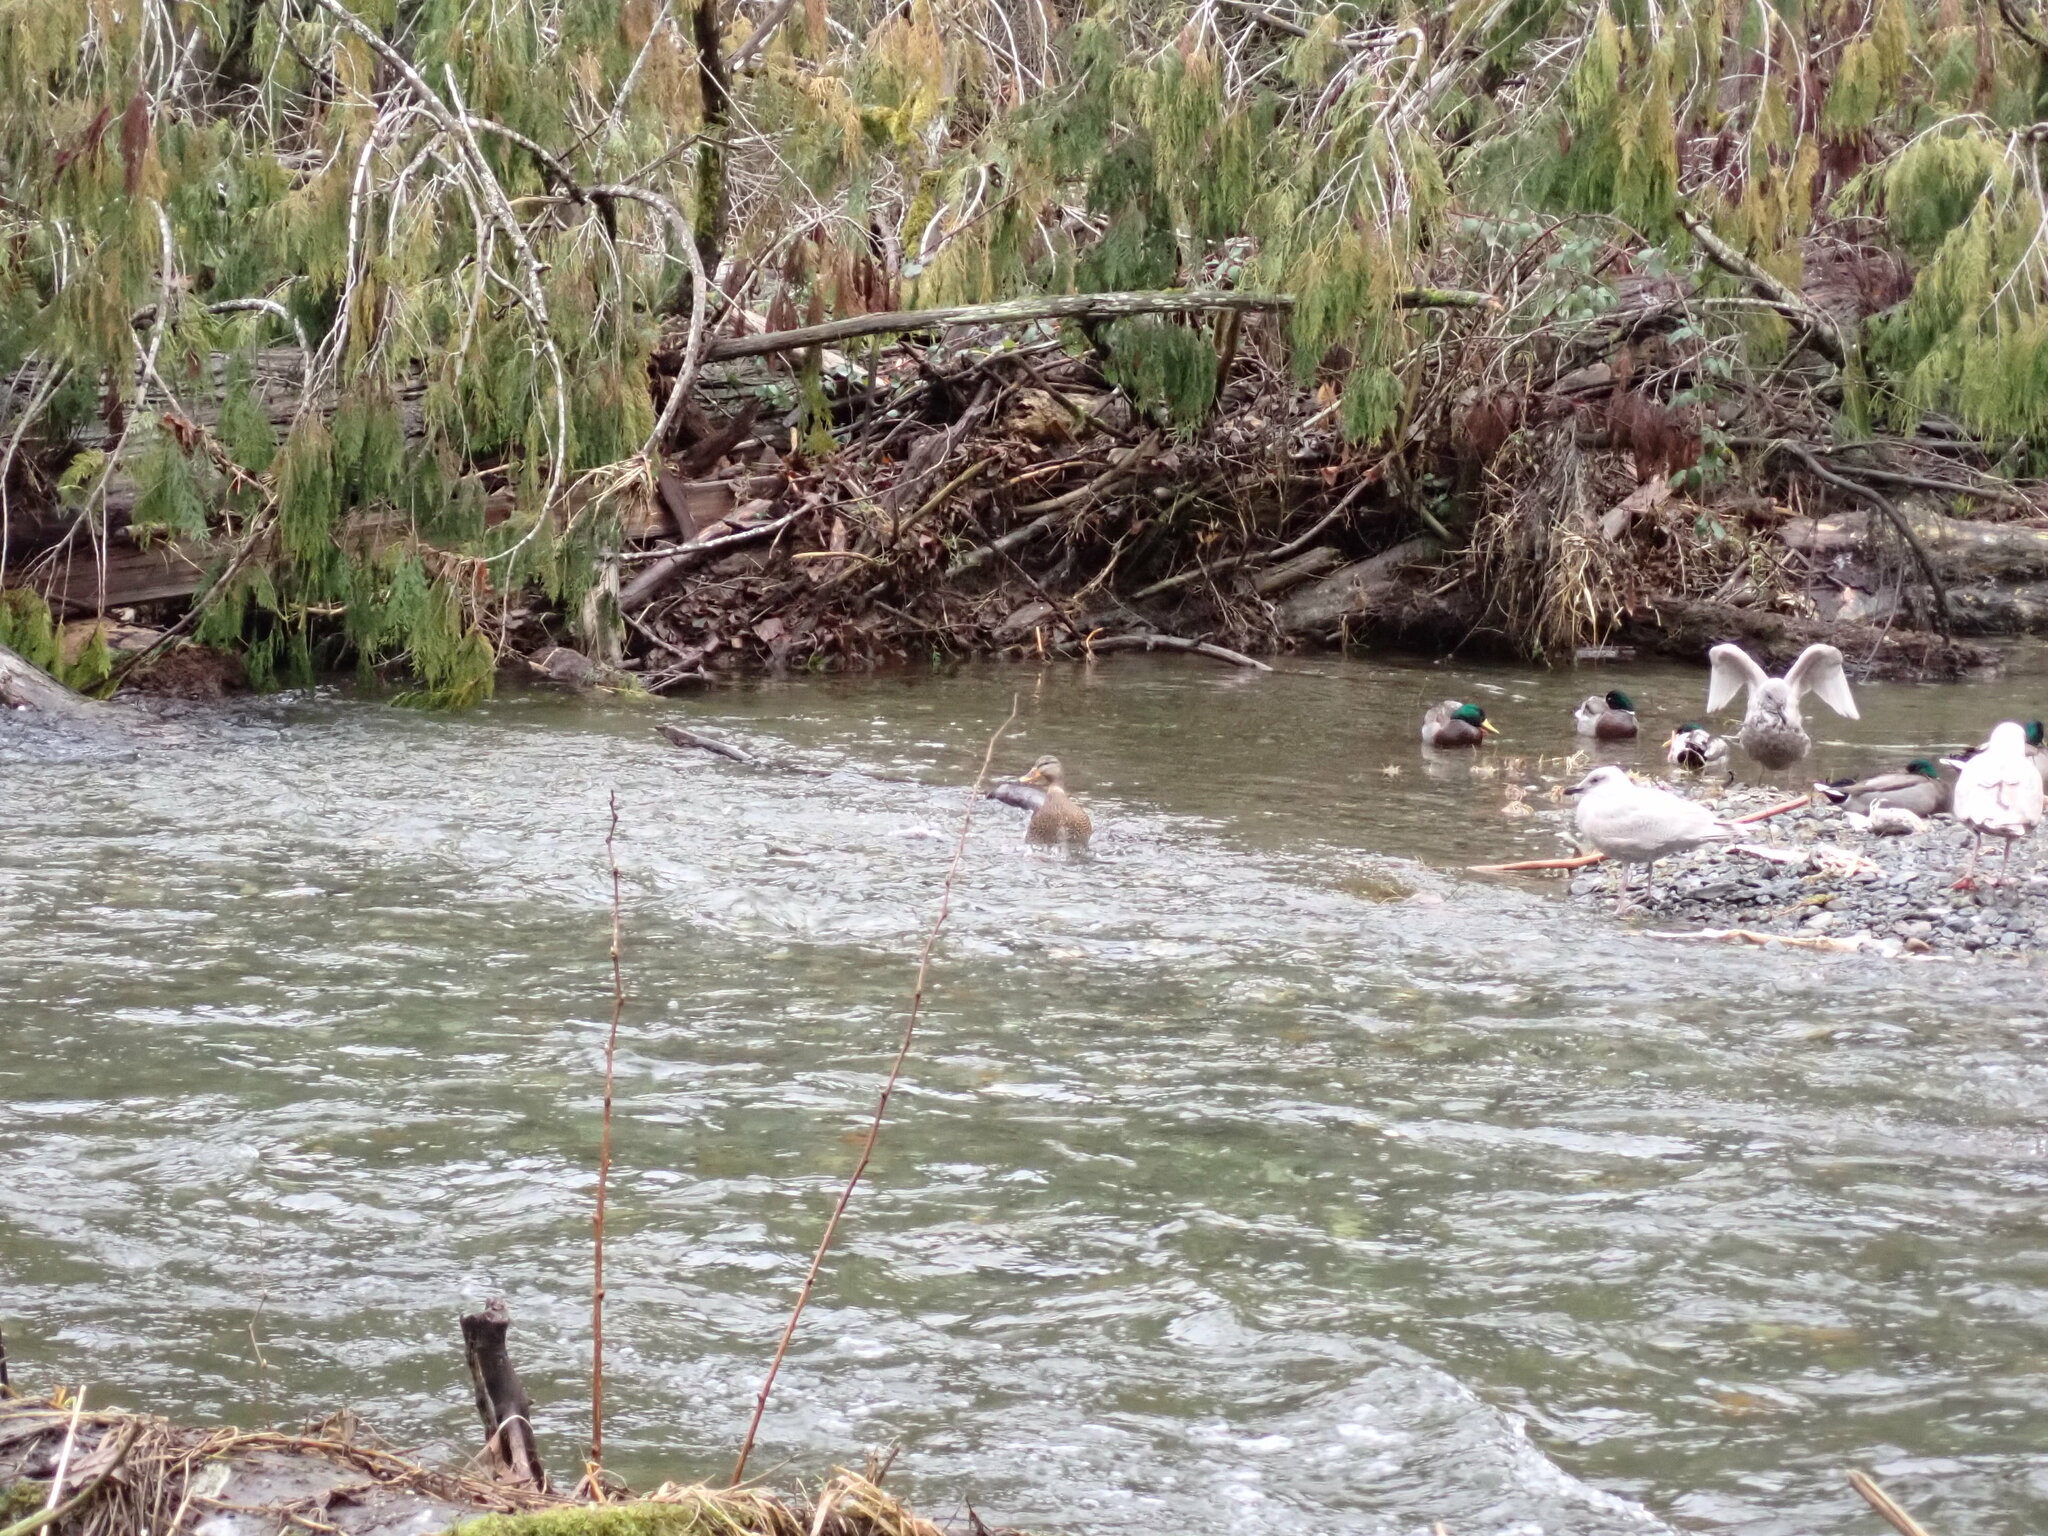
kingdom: Animalia
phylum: Chordata
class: Aves
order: Anseriformes
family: Anatidae
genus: Anas
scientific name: Anas platyrhynchos
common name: Mallard
